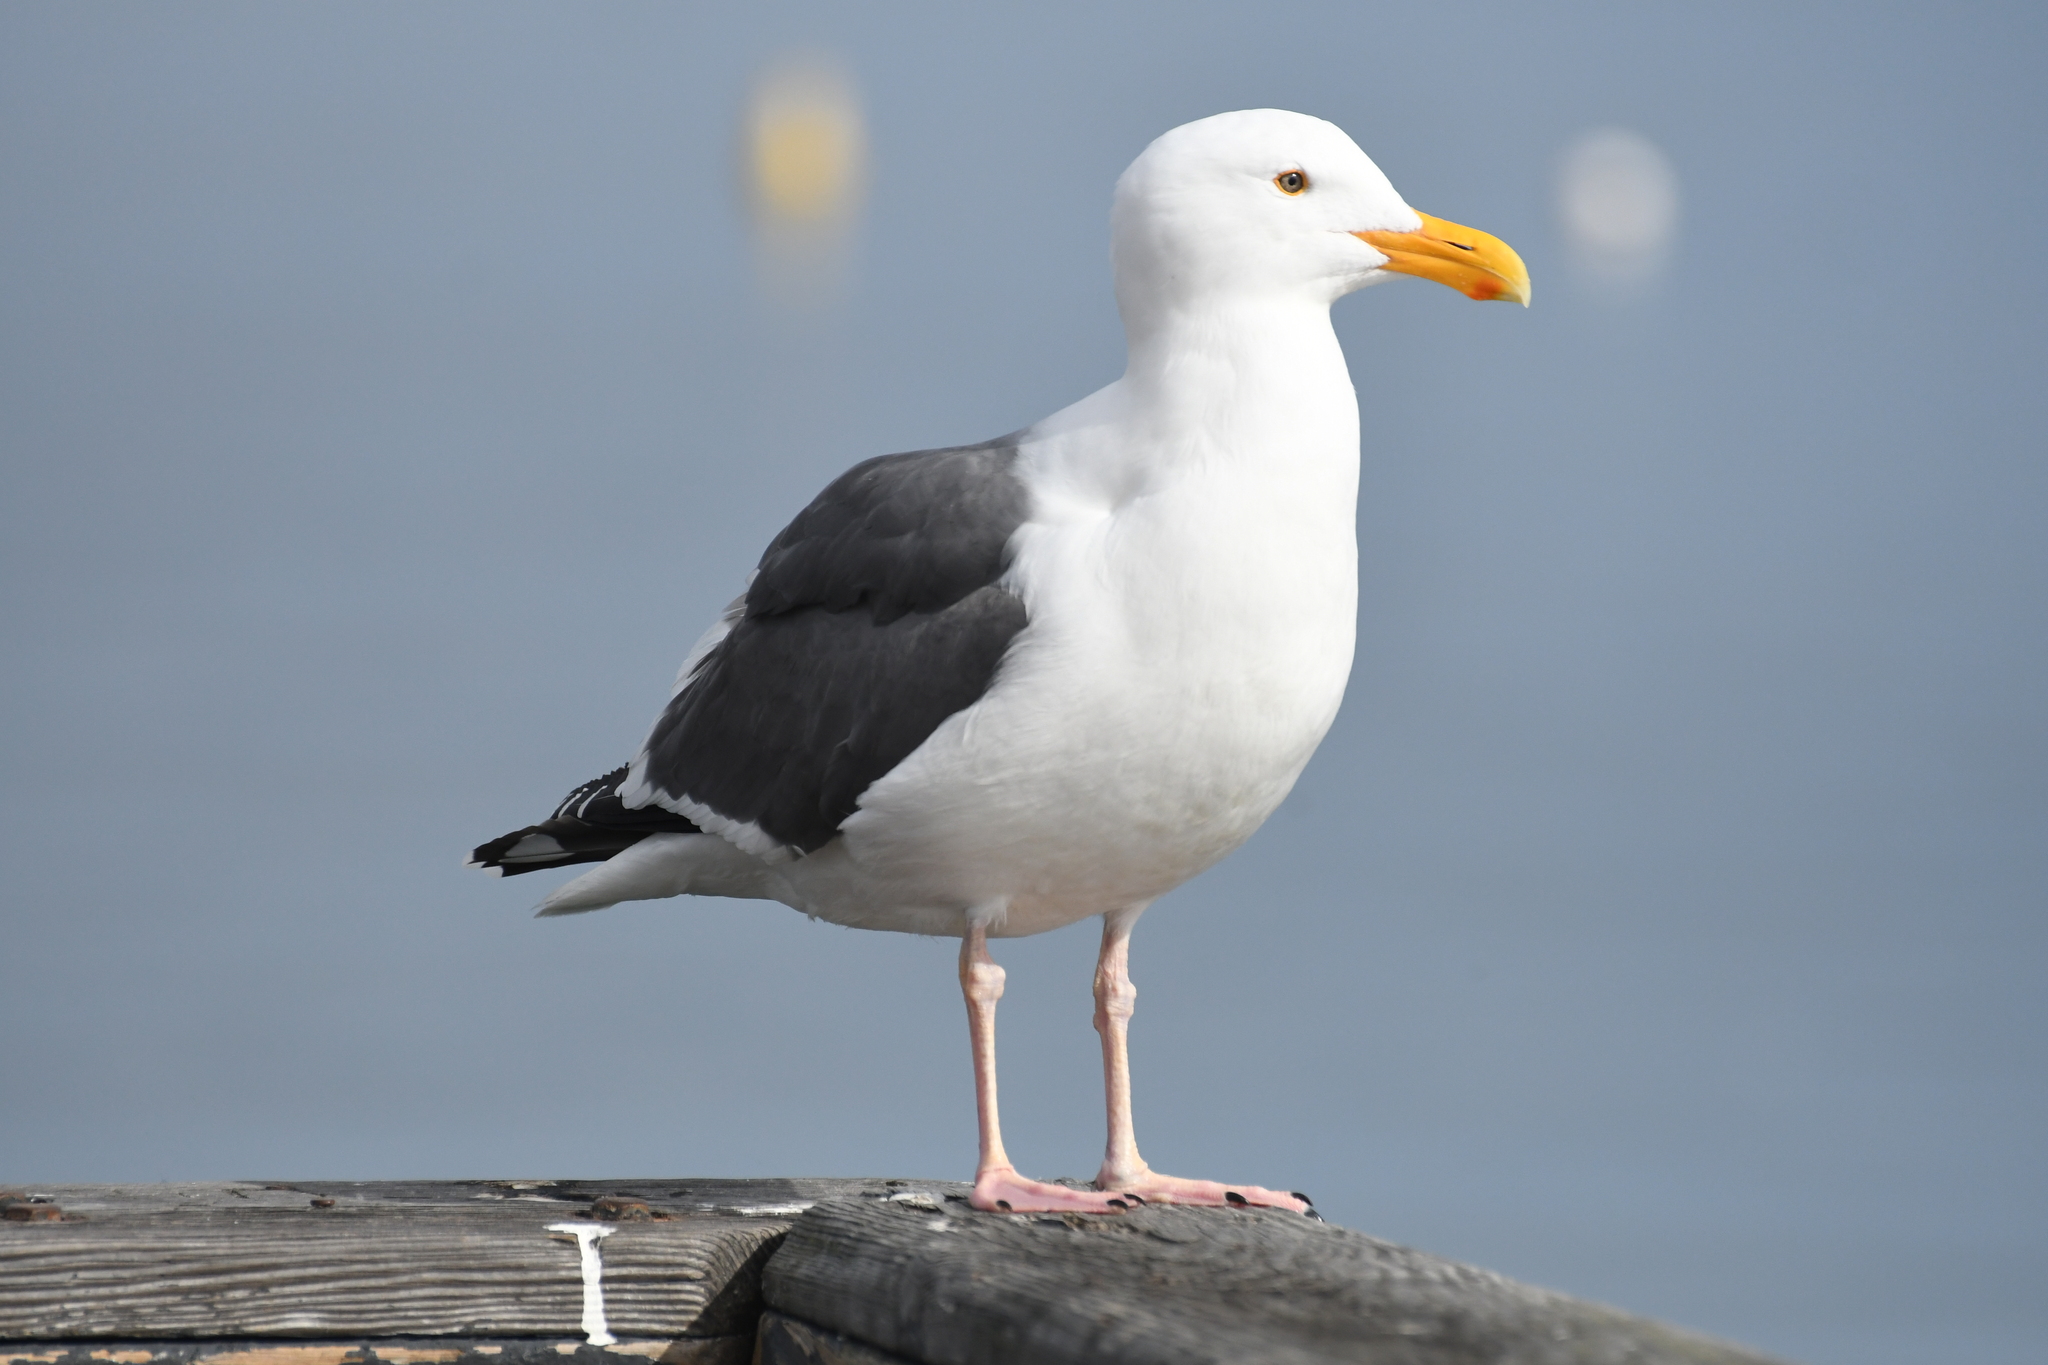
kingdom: Animalia
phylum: Chordata
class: Aves
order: Charadriiformes
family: Laridae
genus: Larus
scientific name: Larus occidentalis
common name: Western gull
